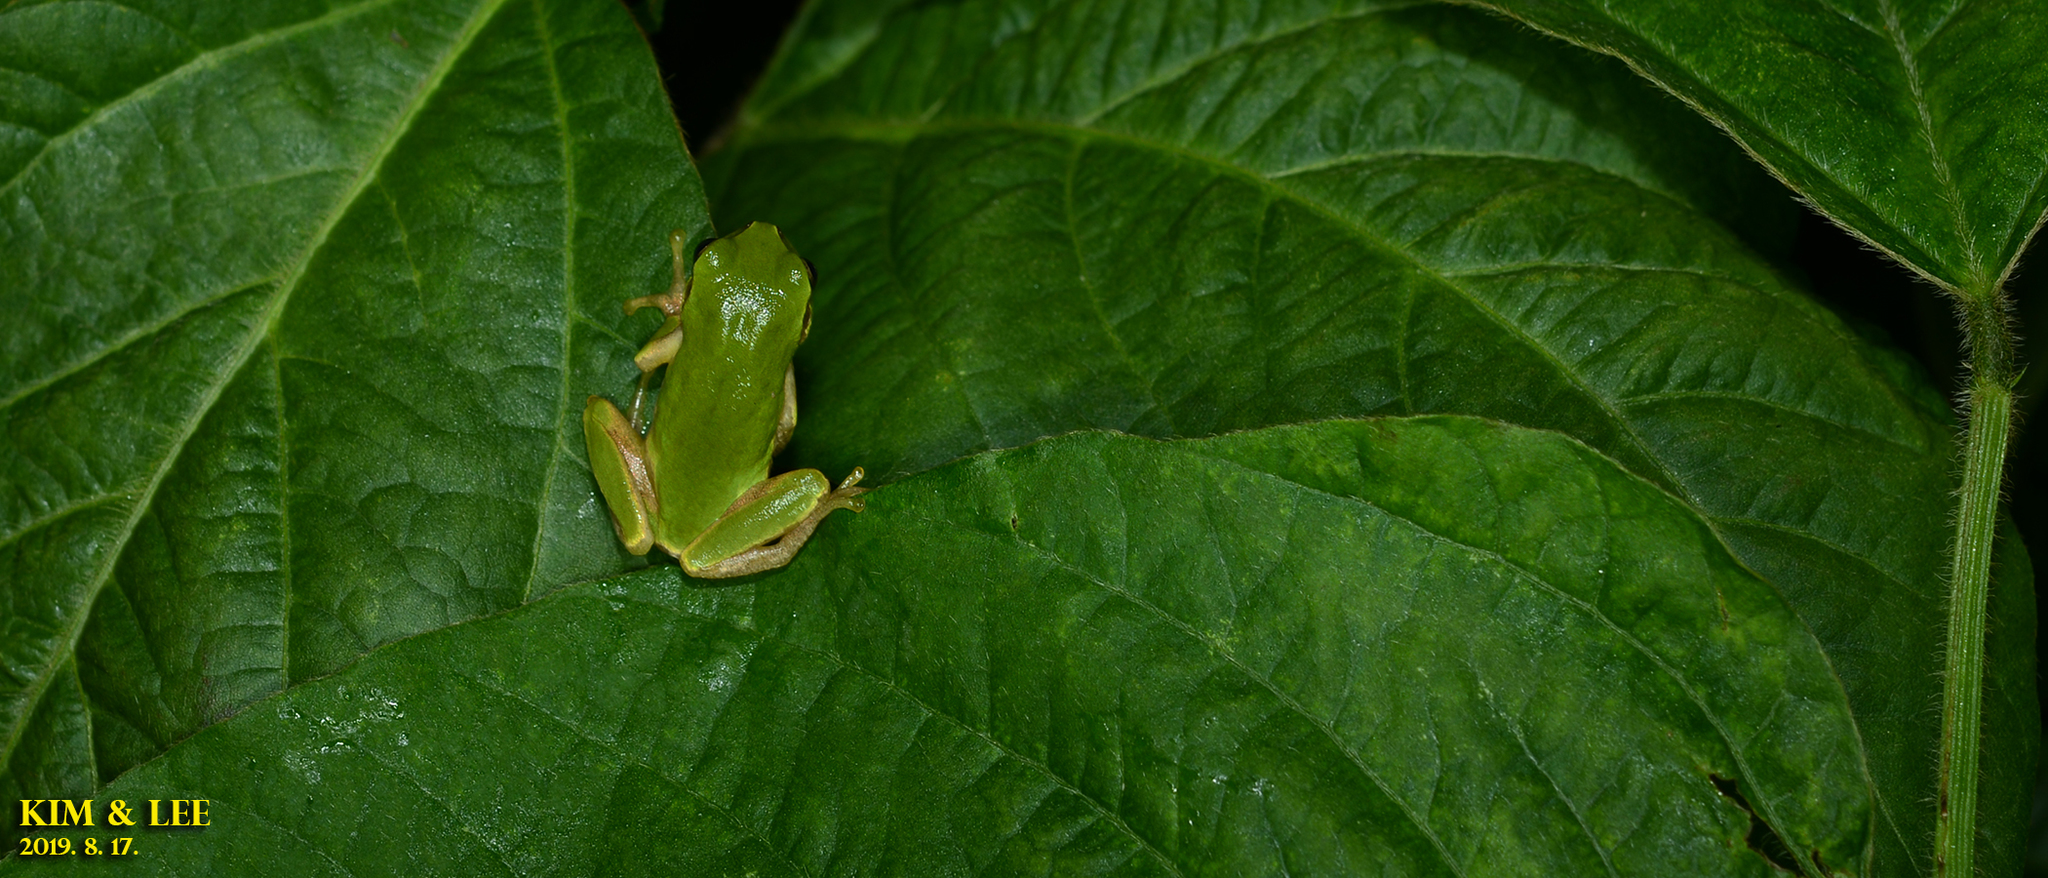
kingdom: Animalia
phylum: Chordata
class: Amphibia
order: Anura
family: Hylidae
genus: Dryophytes
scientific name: Dryophytes japonicus
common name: Japanese treefrog
